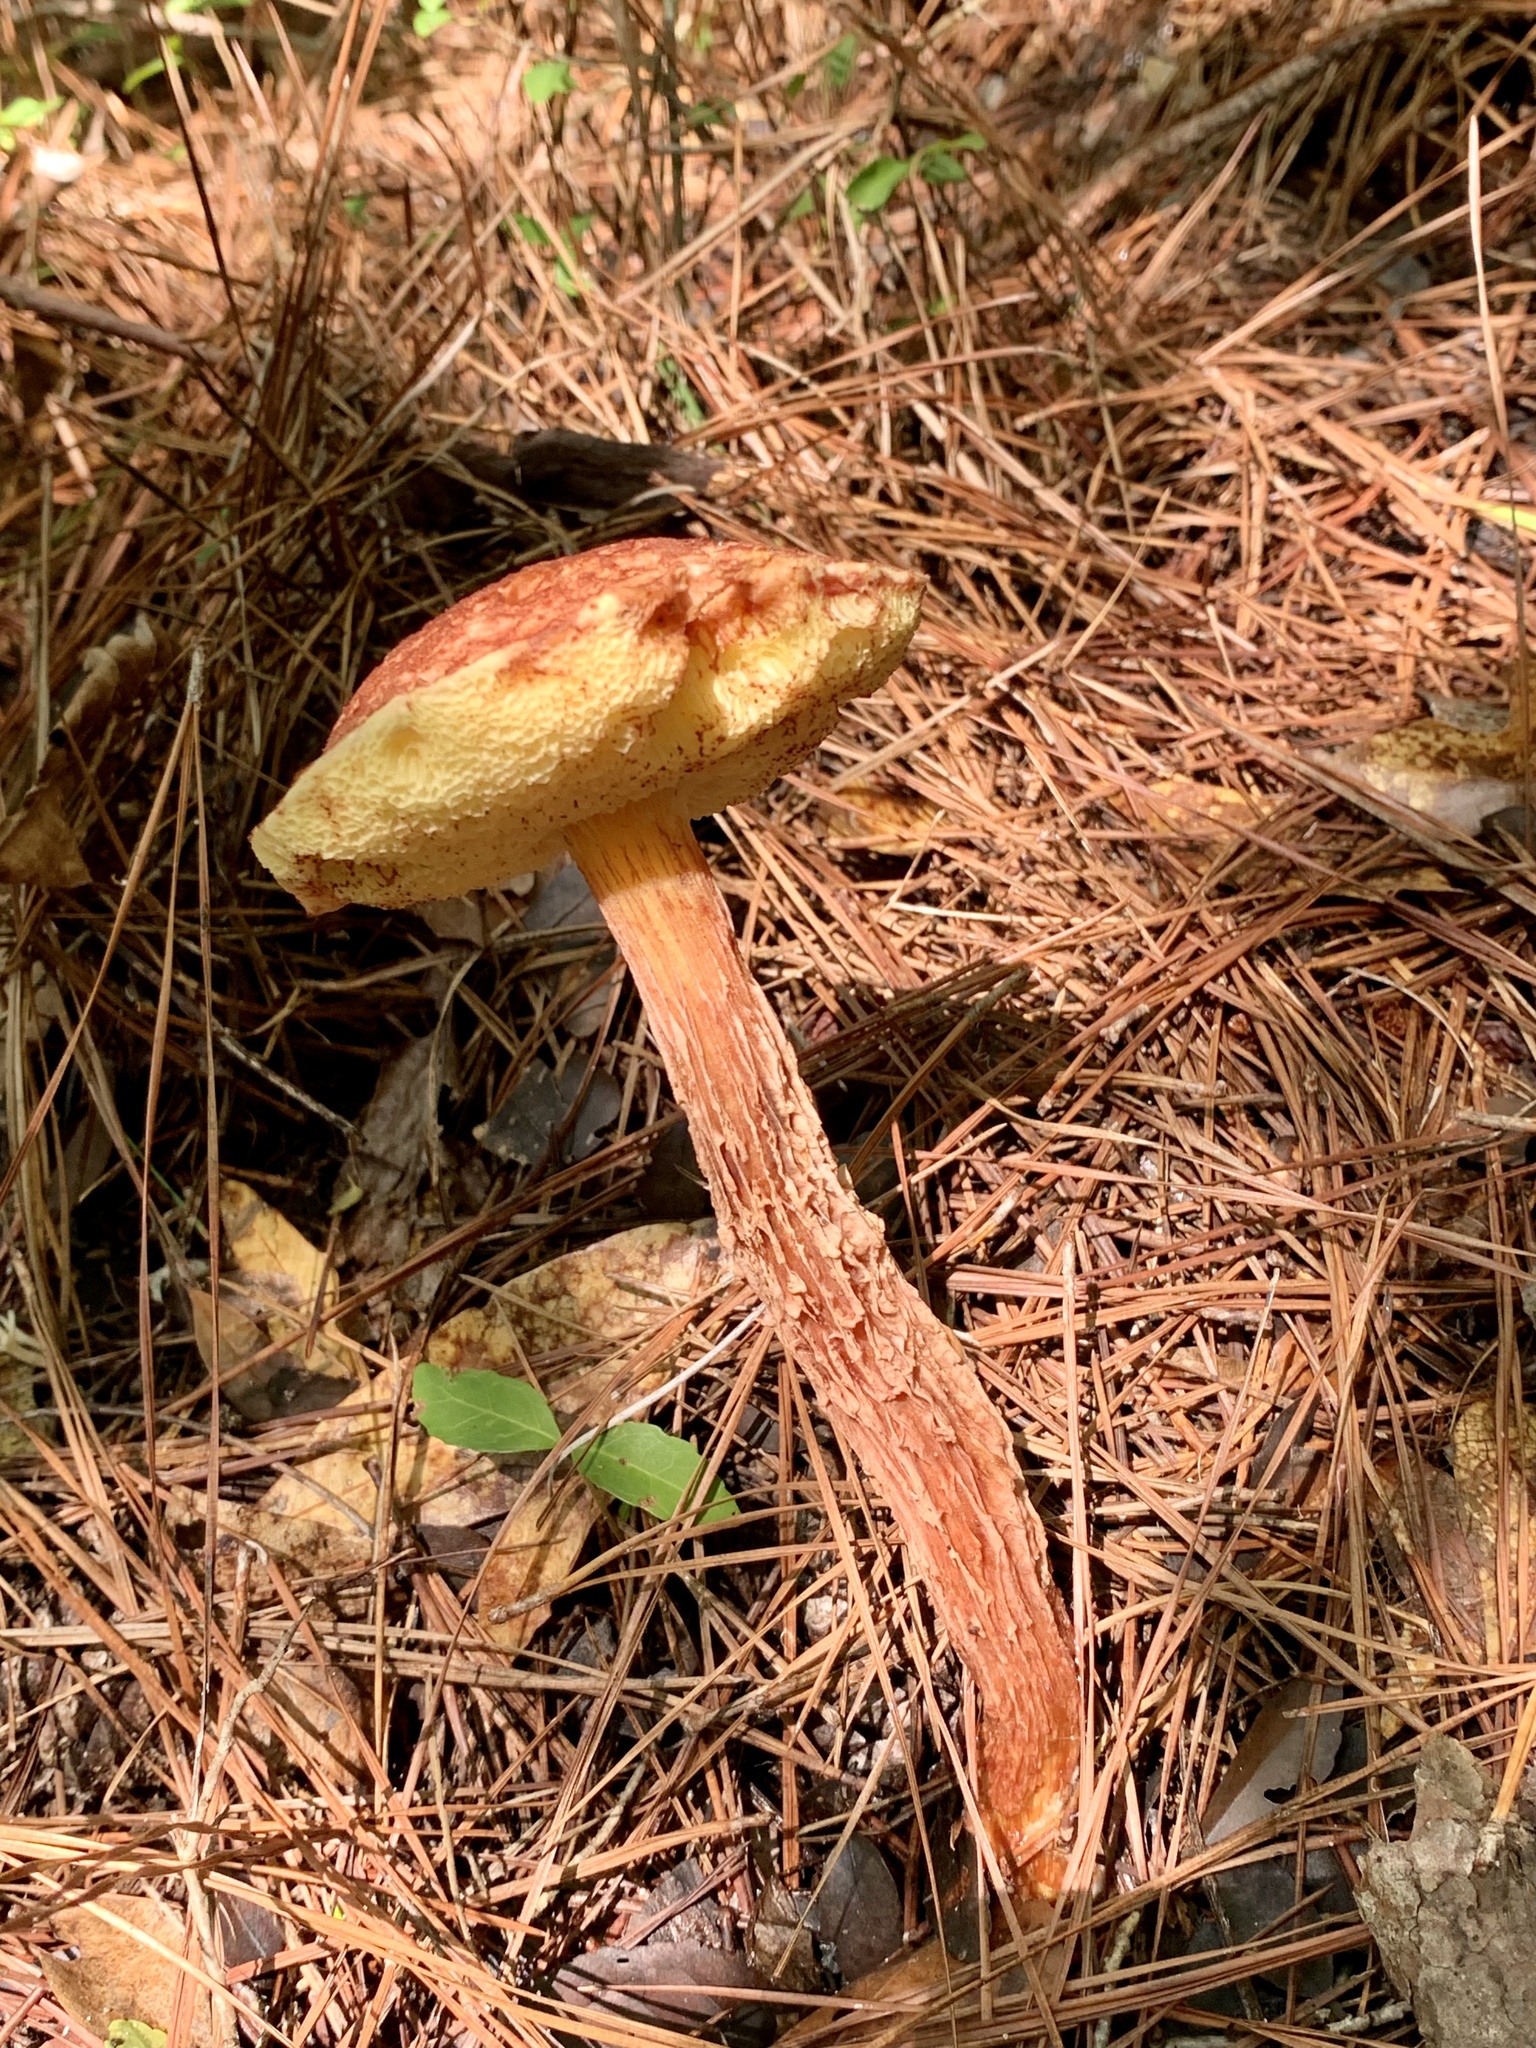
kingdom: Fungi
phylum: Basidiomycota
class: Agaricomycetes
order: Boletales
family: Boletaceae
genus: Aureoboletus
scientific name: Aureoboletus russellii
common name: Russell's bolete
